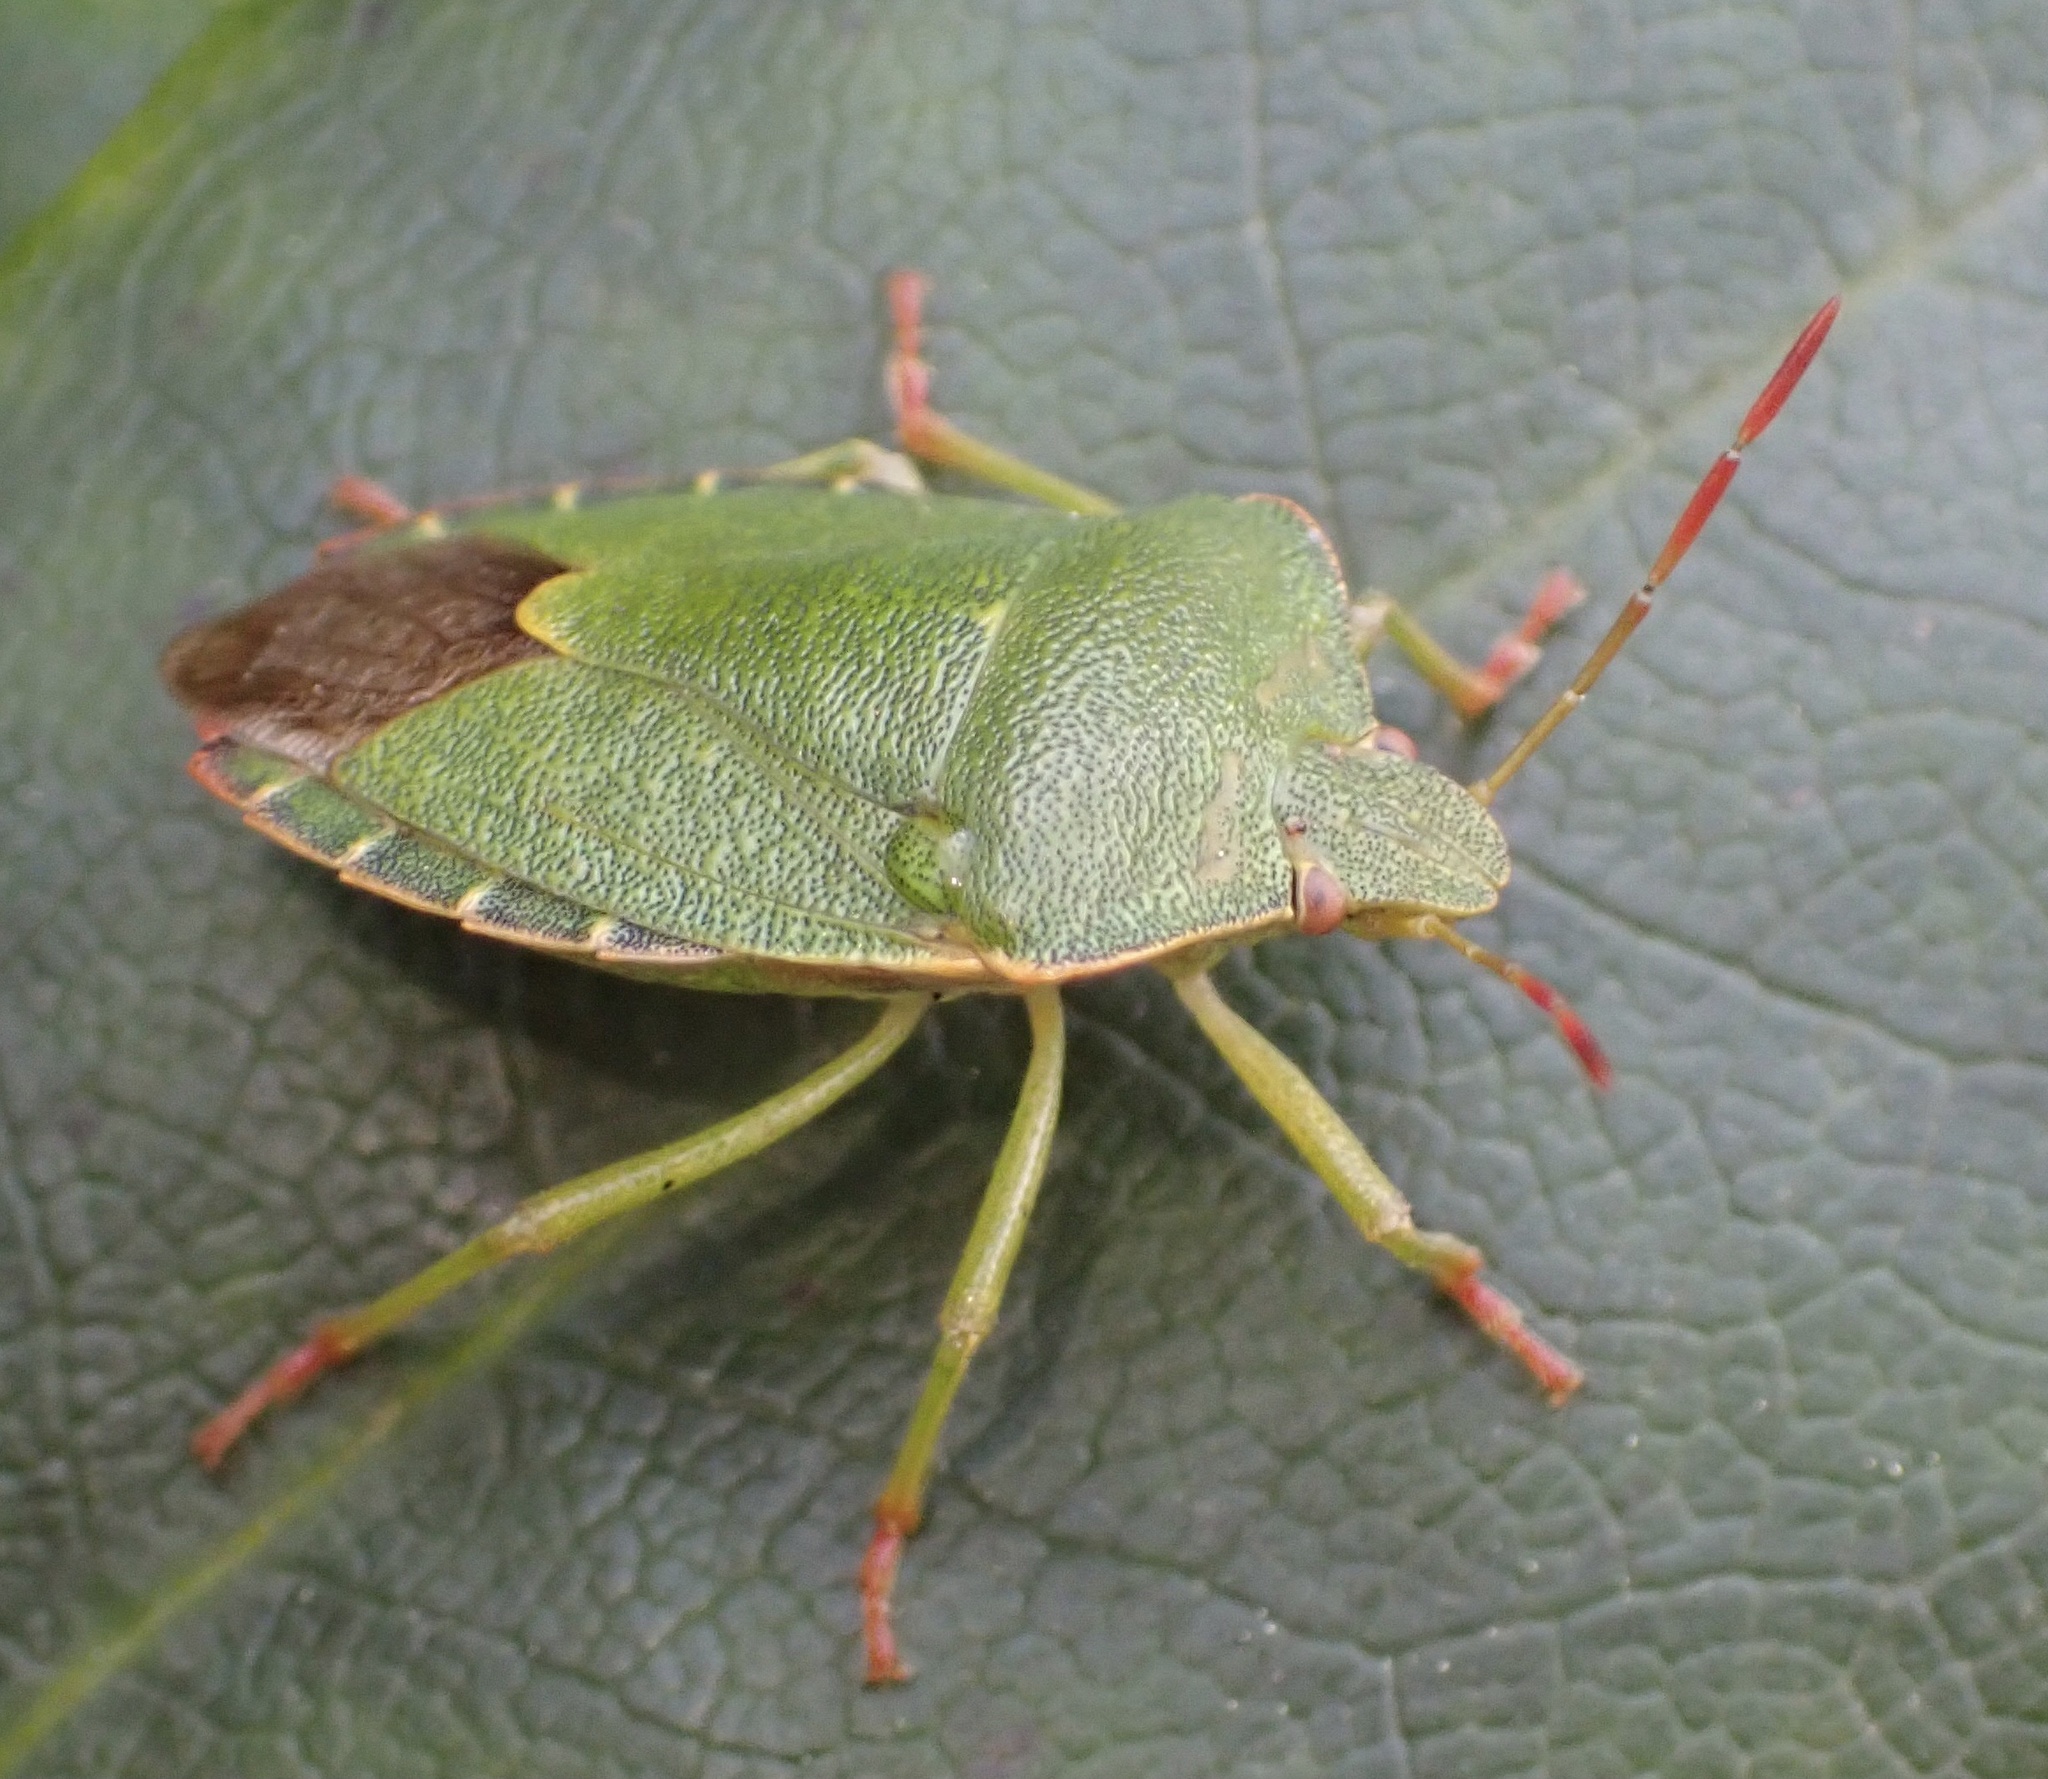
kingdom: Animalia
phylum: Arthropoda
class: Insecta
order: Hemiptera
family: Pentatomidae
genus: Palomena
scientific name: Palomena prasina
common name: Green shieldbug
